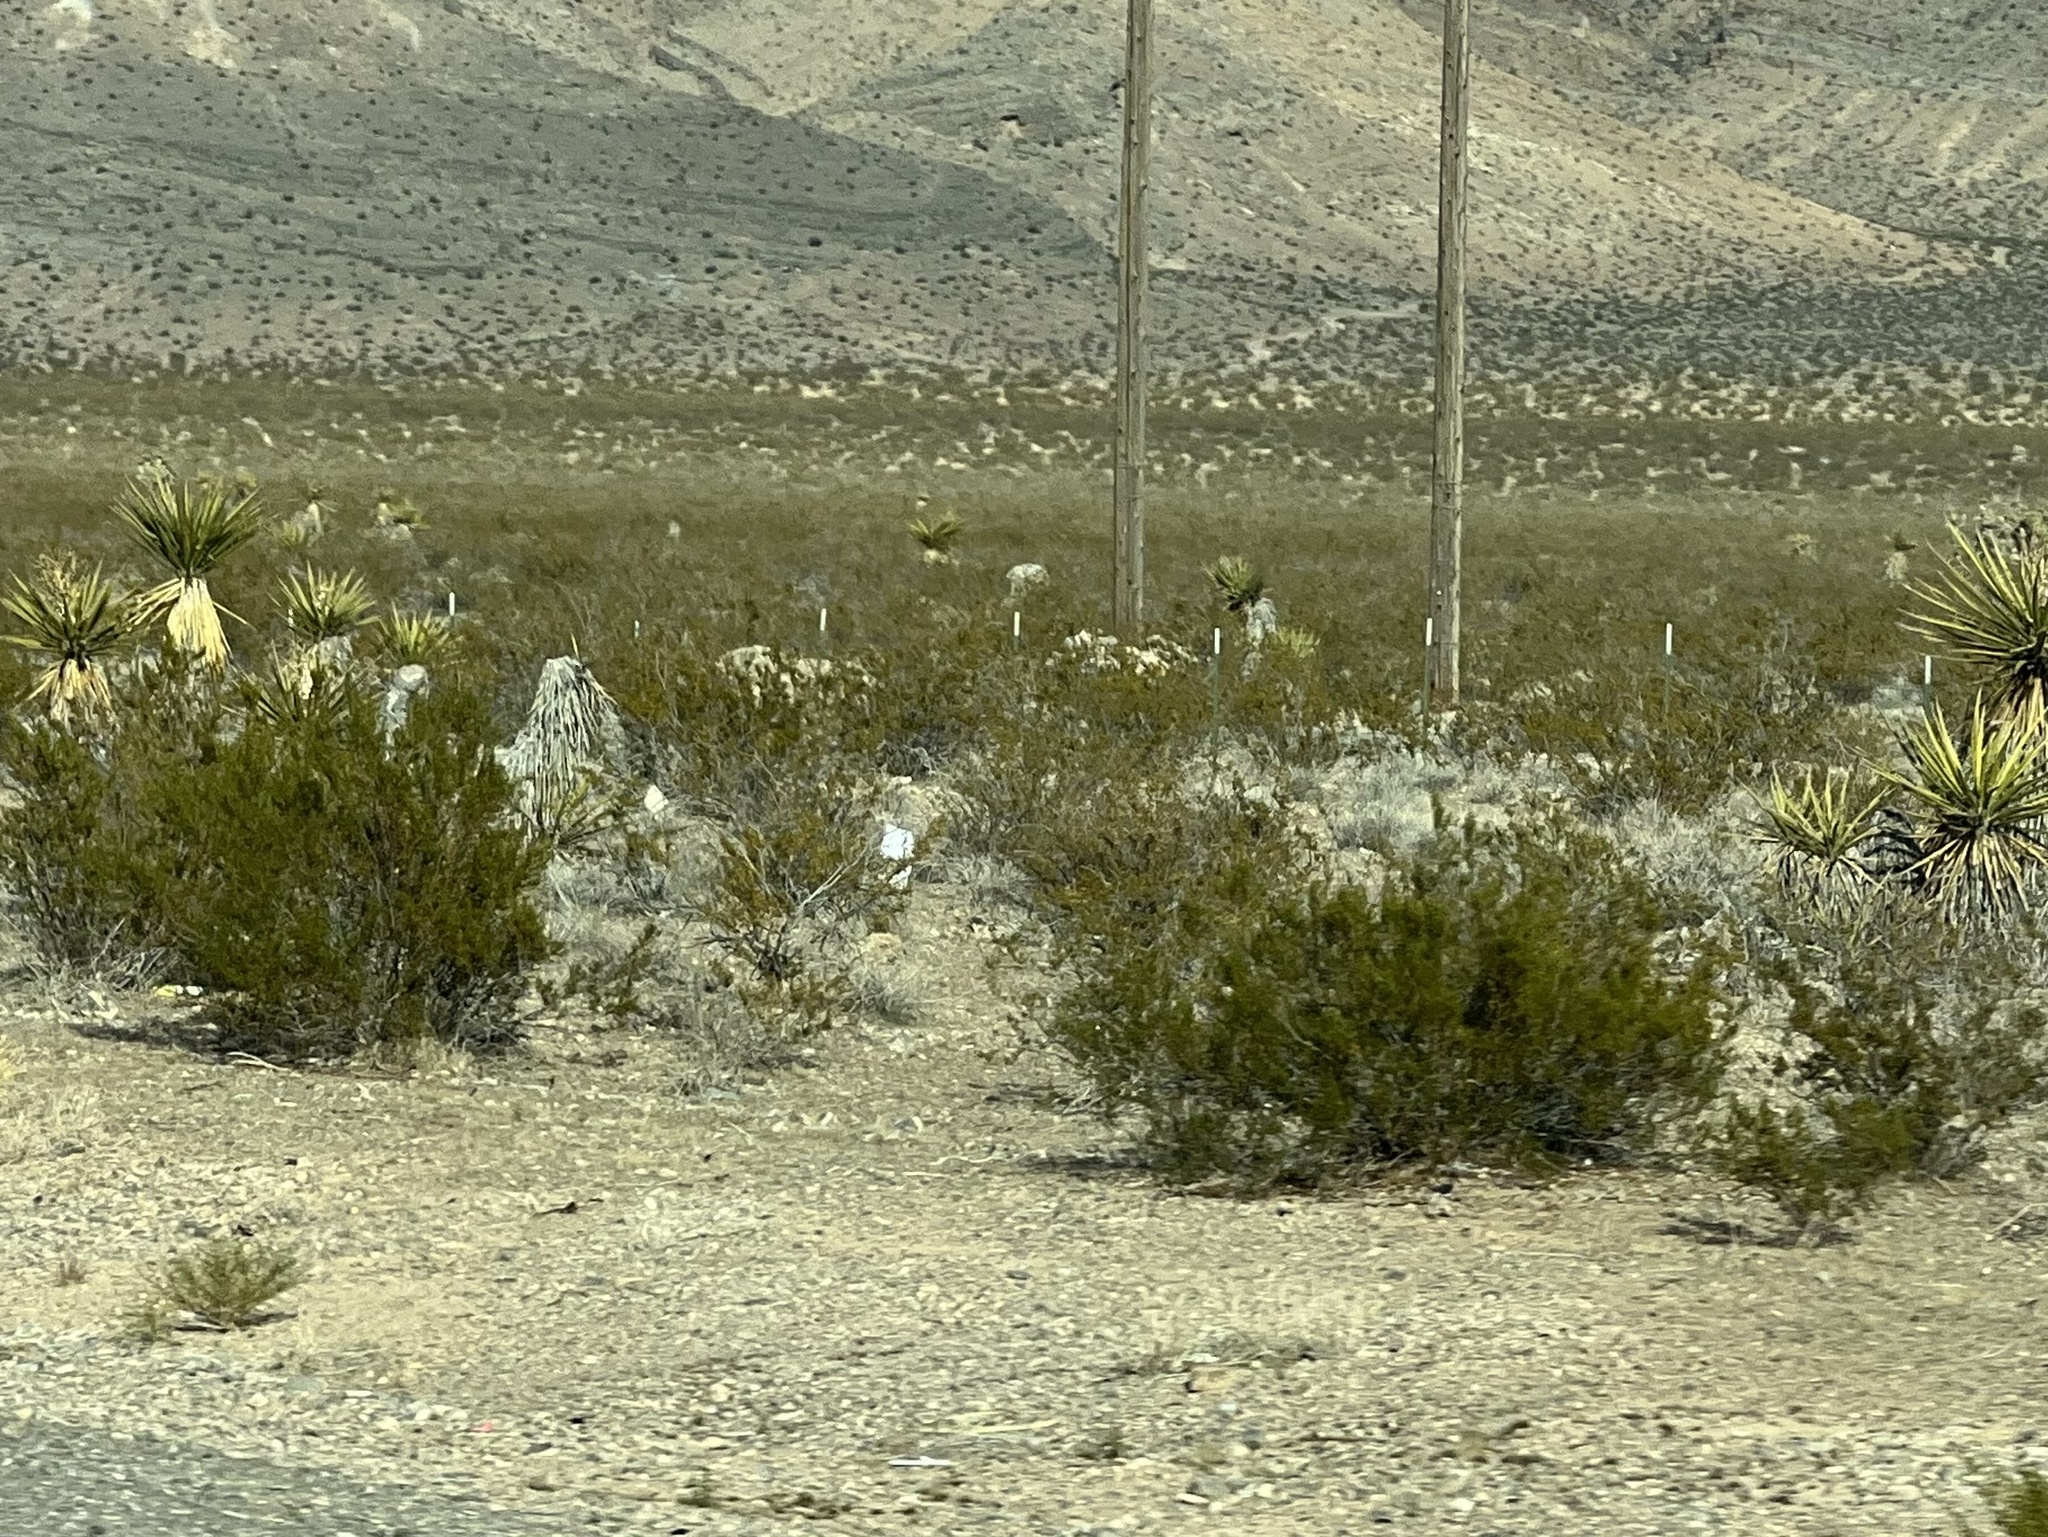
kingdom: Plantae
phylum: Tracheophyta
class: Magnoliopsida
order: Zygophyllales
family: Zygophyllaceae
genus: Larrea
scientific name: Larrea tridentata
